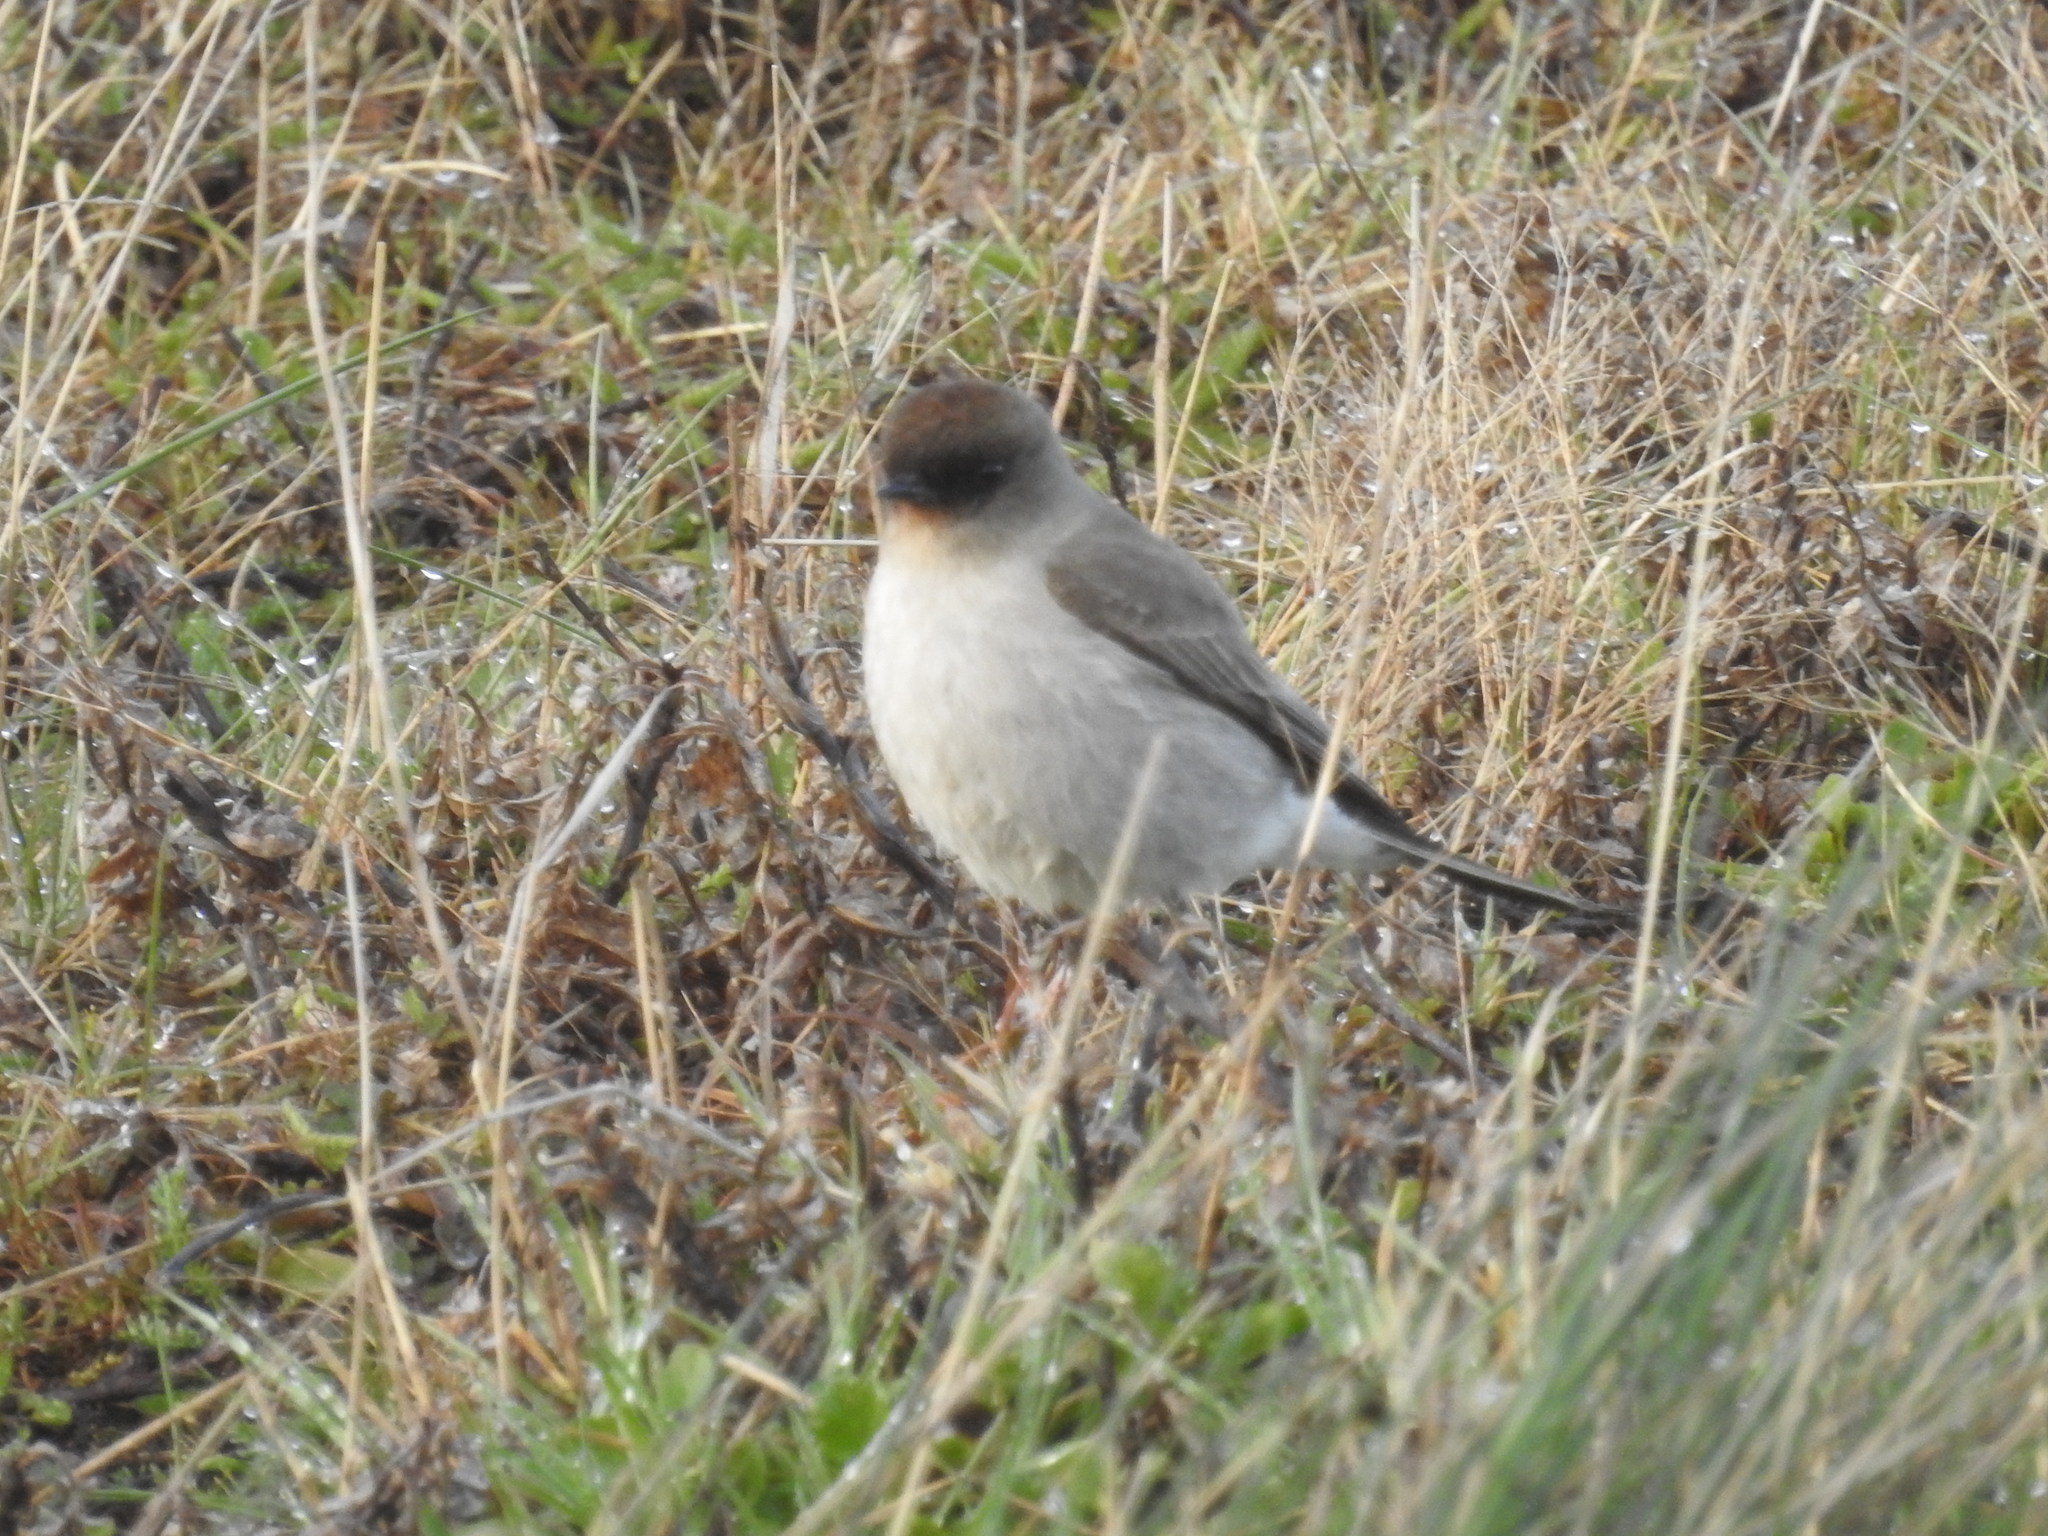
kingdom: Animalia
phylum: Chordata
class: Aves
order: Passeriformes
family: Tyrannidae
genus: Muscisaxicola
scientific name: Muscisaxicola maclovianus
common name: Dark-faced ground tyrant
